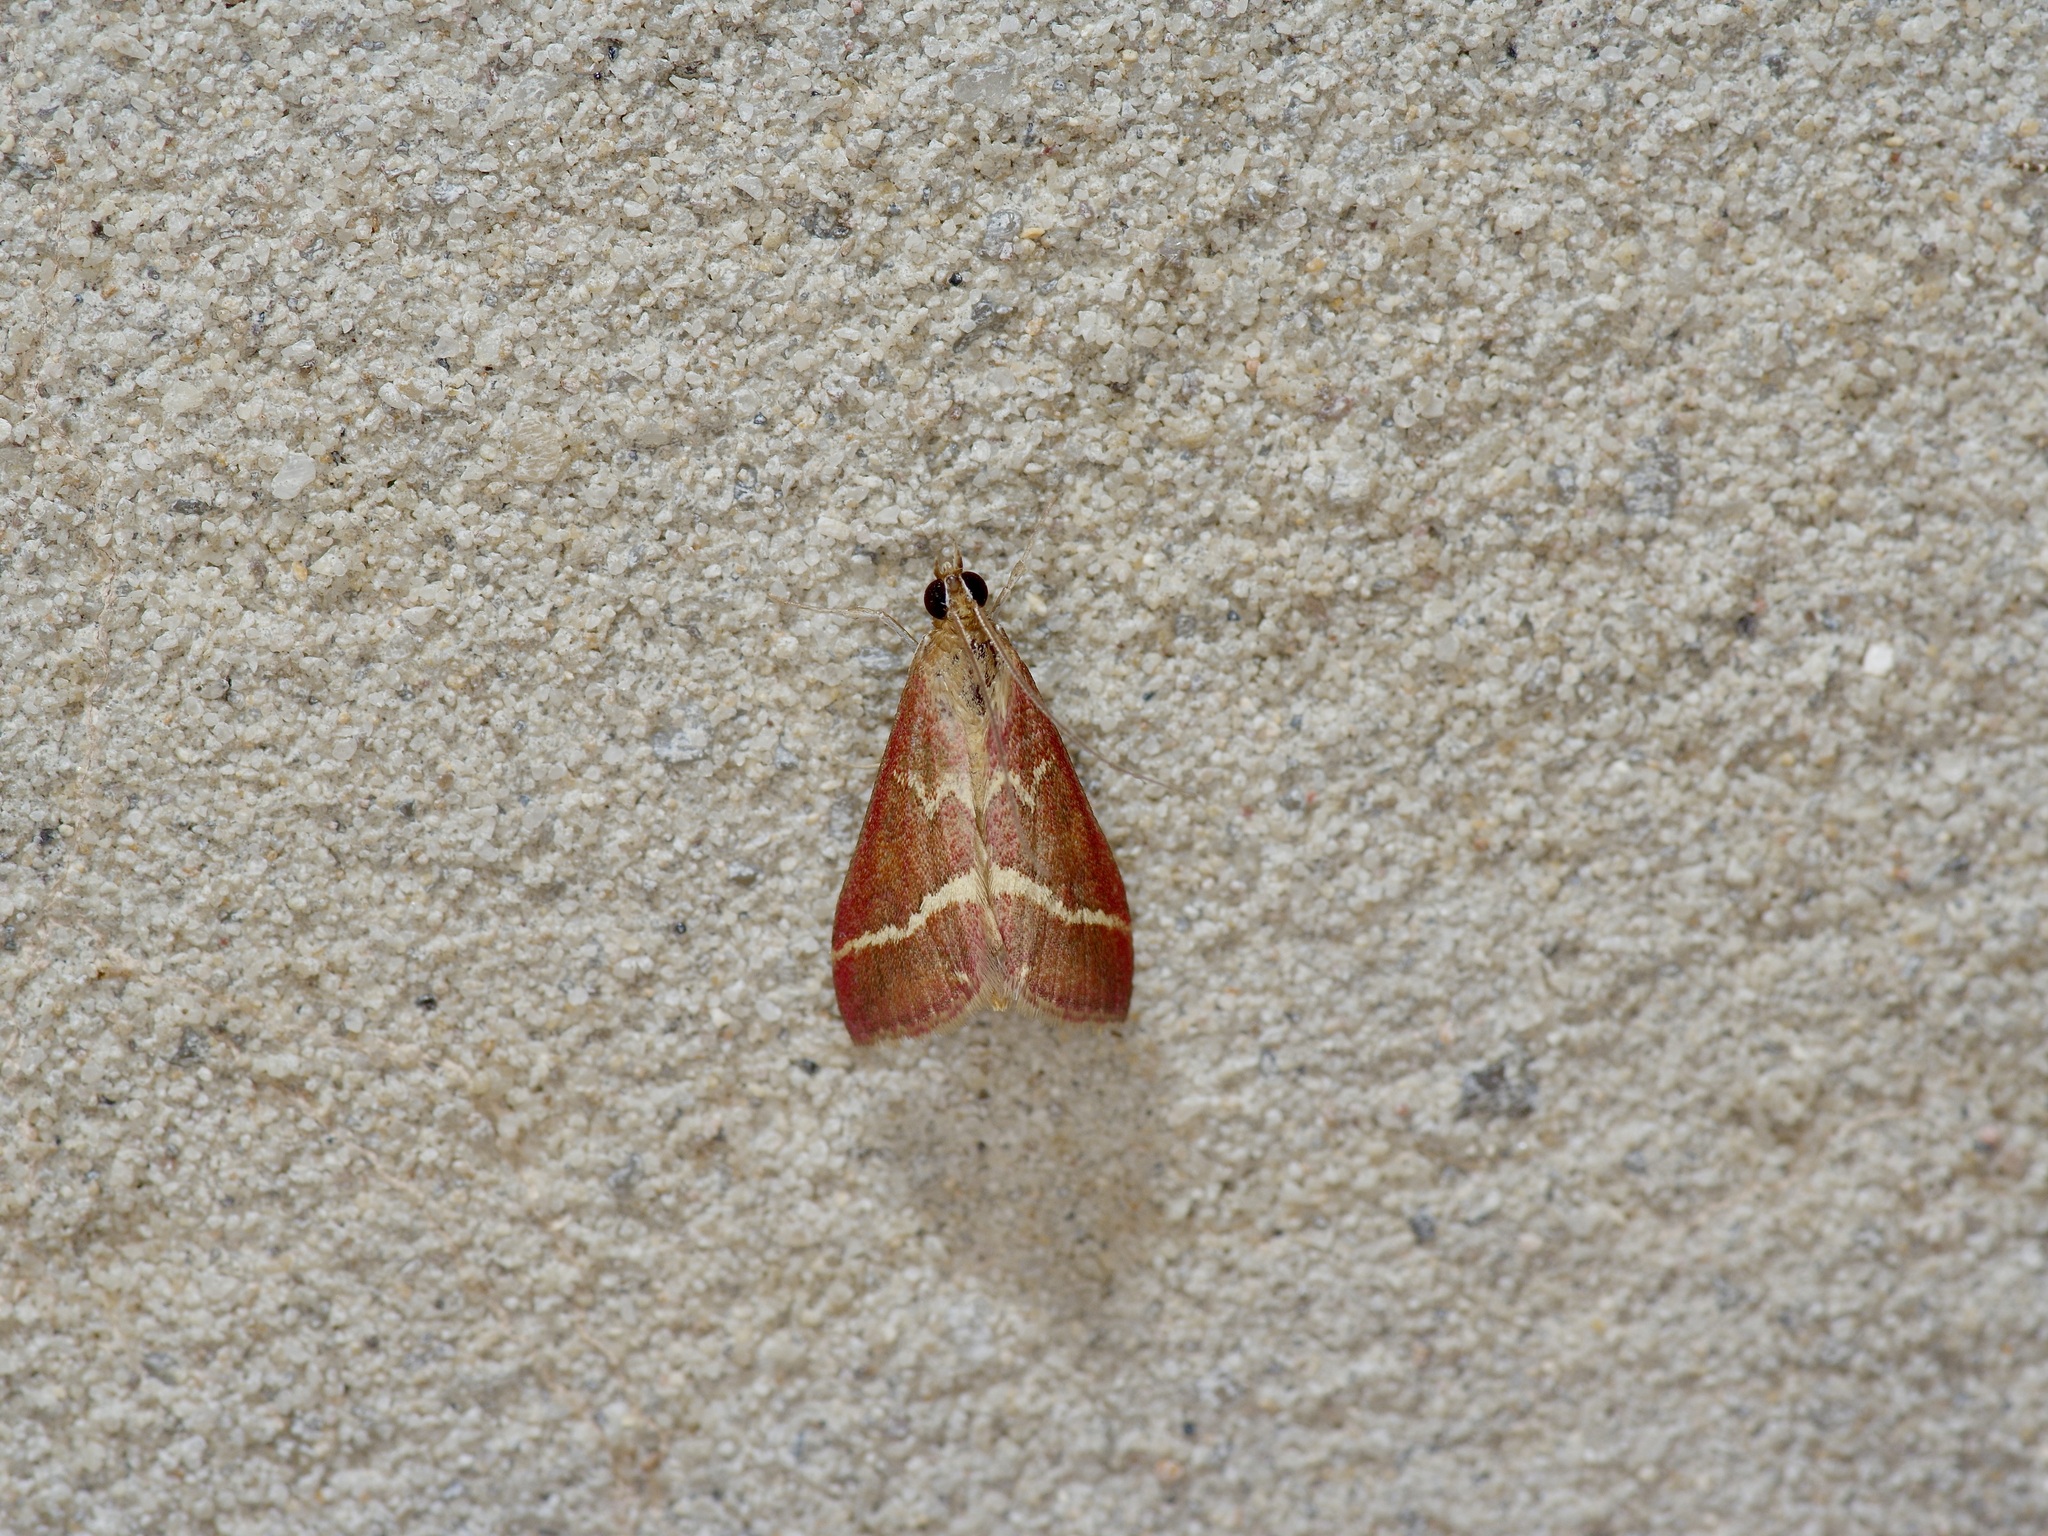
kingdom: Animalia
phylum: Arthropoda
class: Insecta
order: Lepidoptera
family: Crambidae
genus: Pyrausta
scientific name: Pyrausta volupialis
